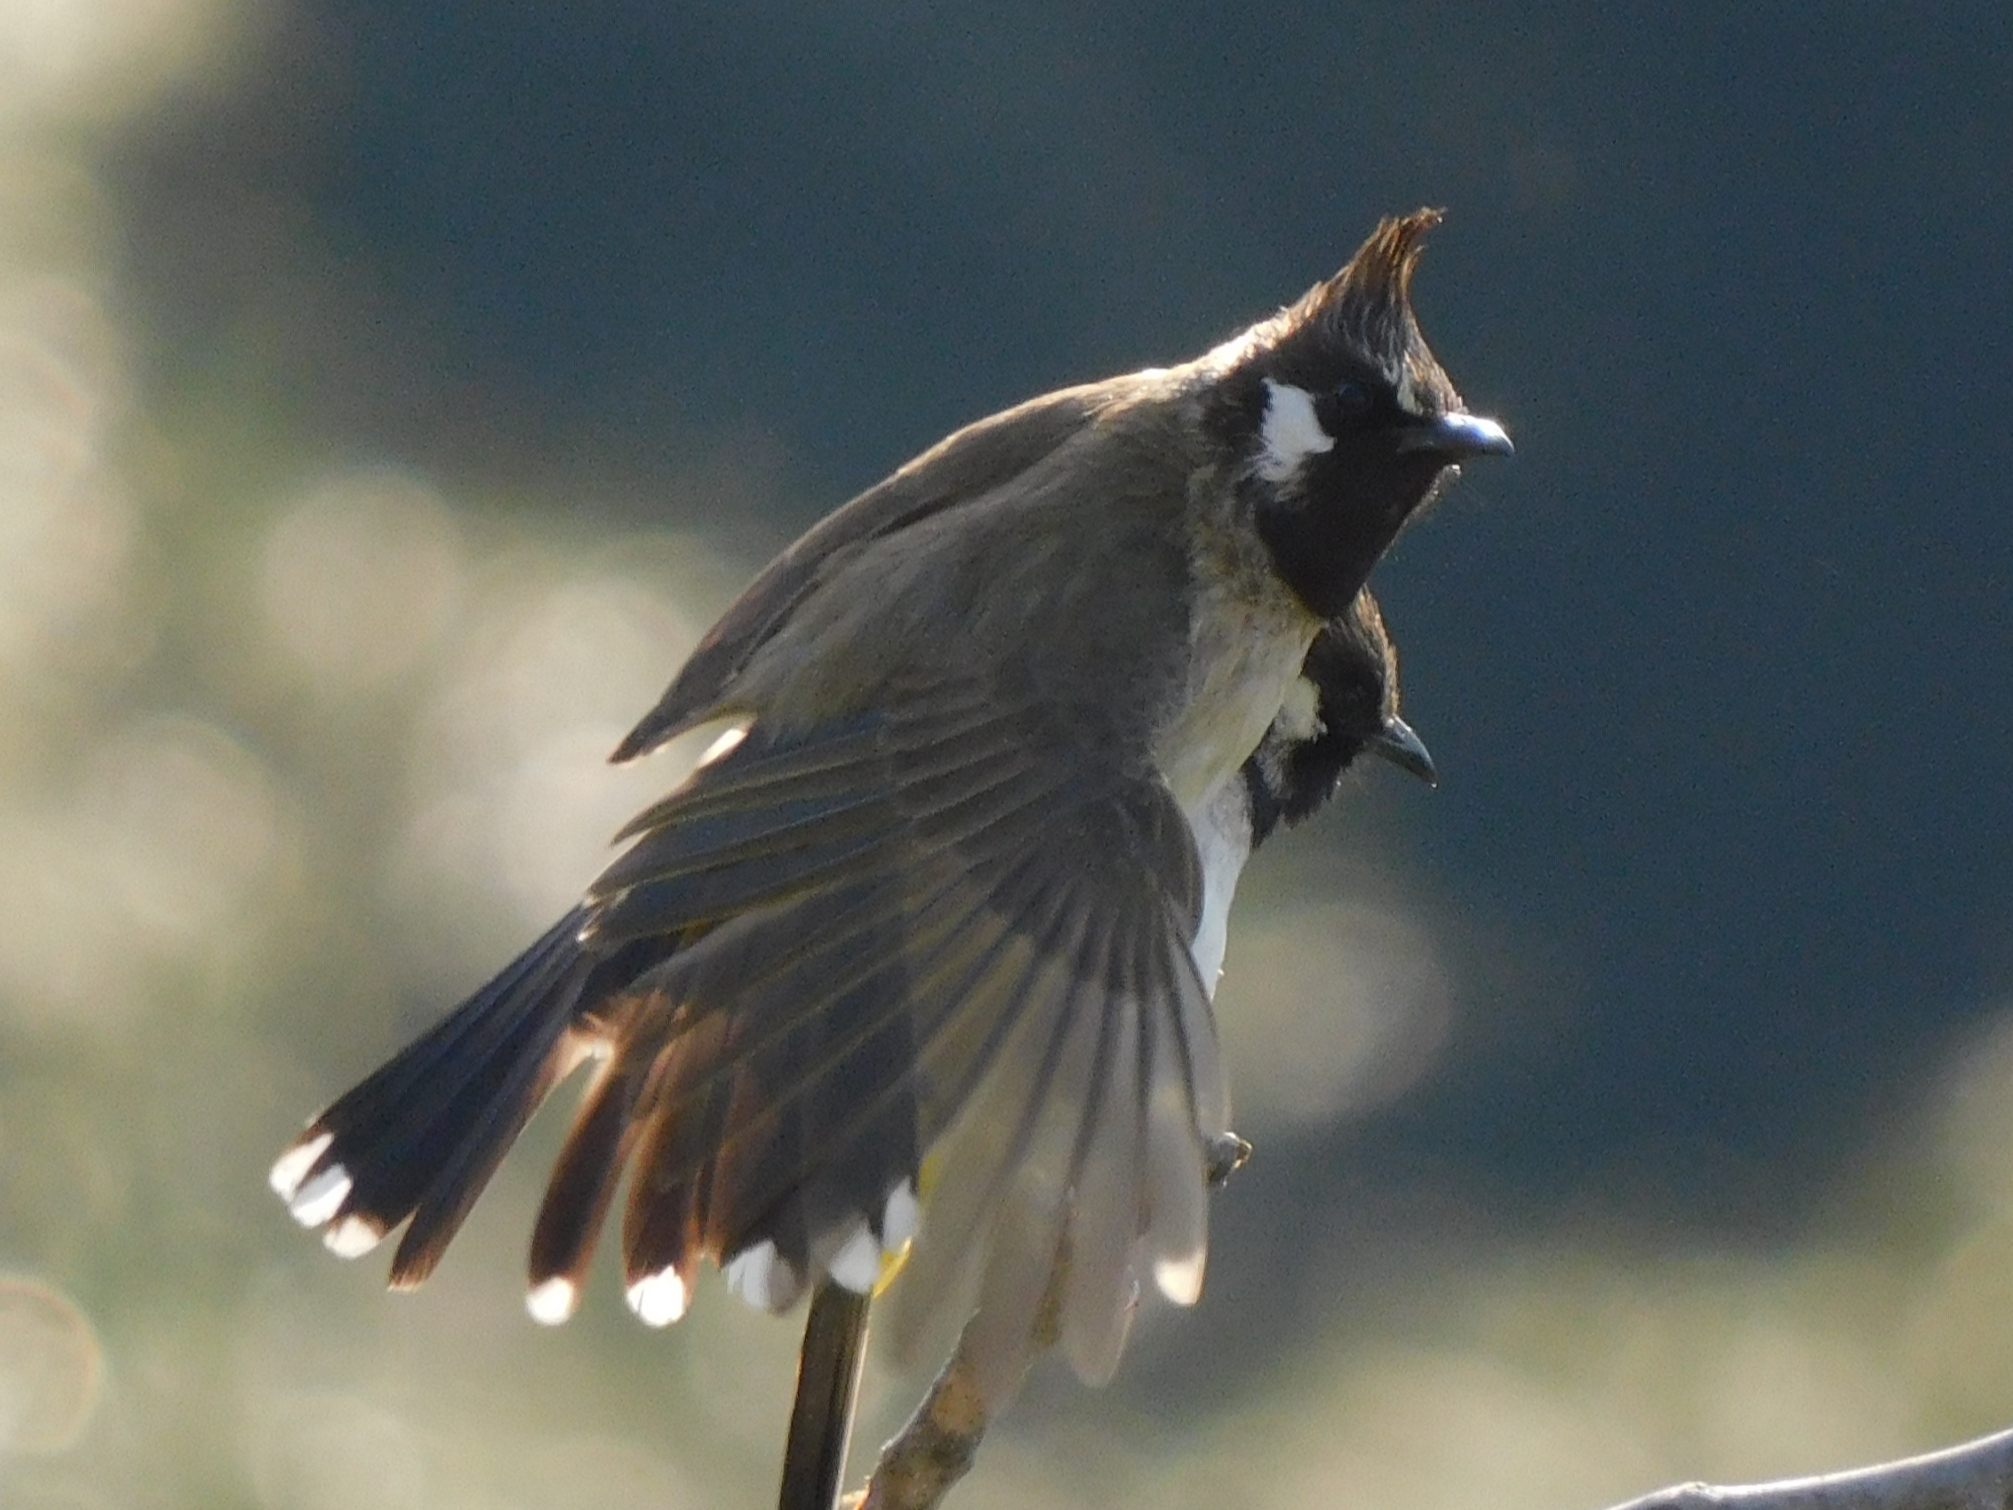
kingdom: Animalia
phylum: Chordata
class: Aves
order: Passeriformes
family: Pycnonotidae
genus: Pycnonotus
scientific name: Pycnonotus leucogenys
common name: Himalayan bulbul
